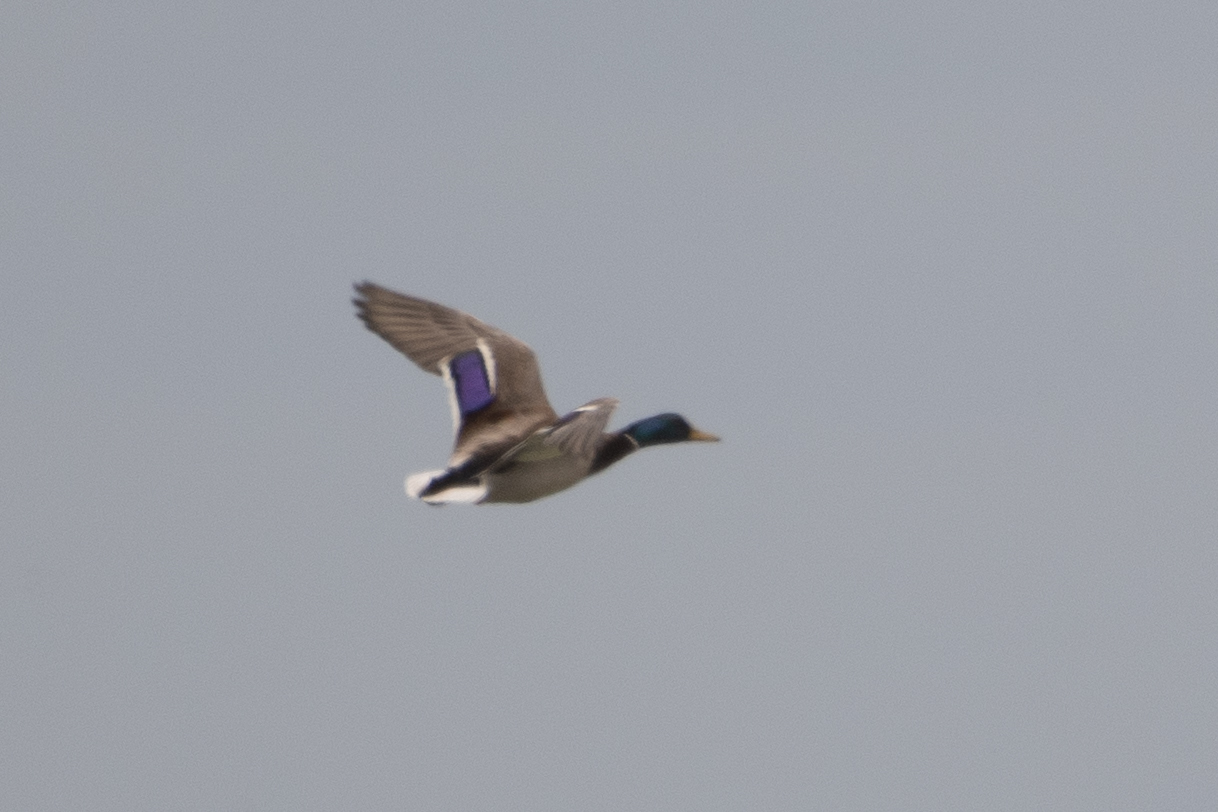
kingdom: Animalia
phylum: Chordata
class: Aves
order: Anseriformes
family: Anatidae
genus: Anas
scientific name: Anas platyrhynchos
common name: Mallard
